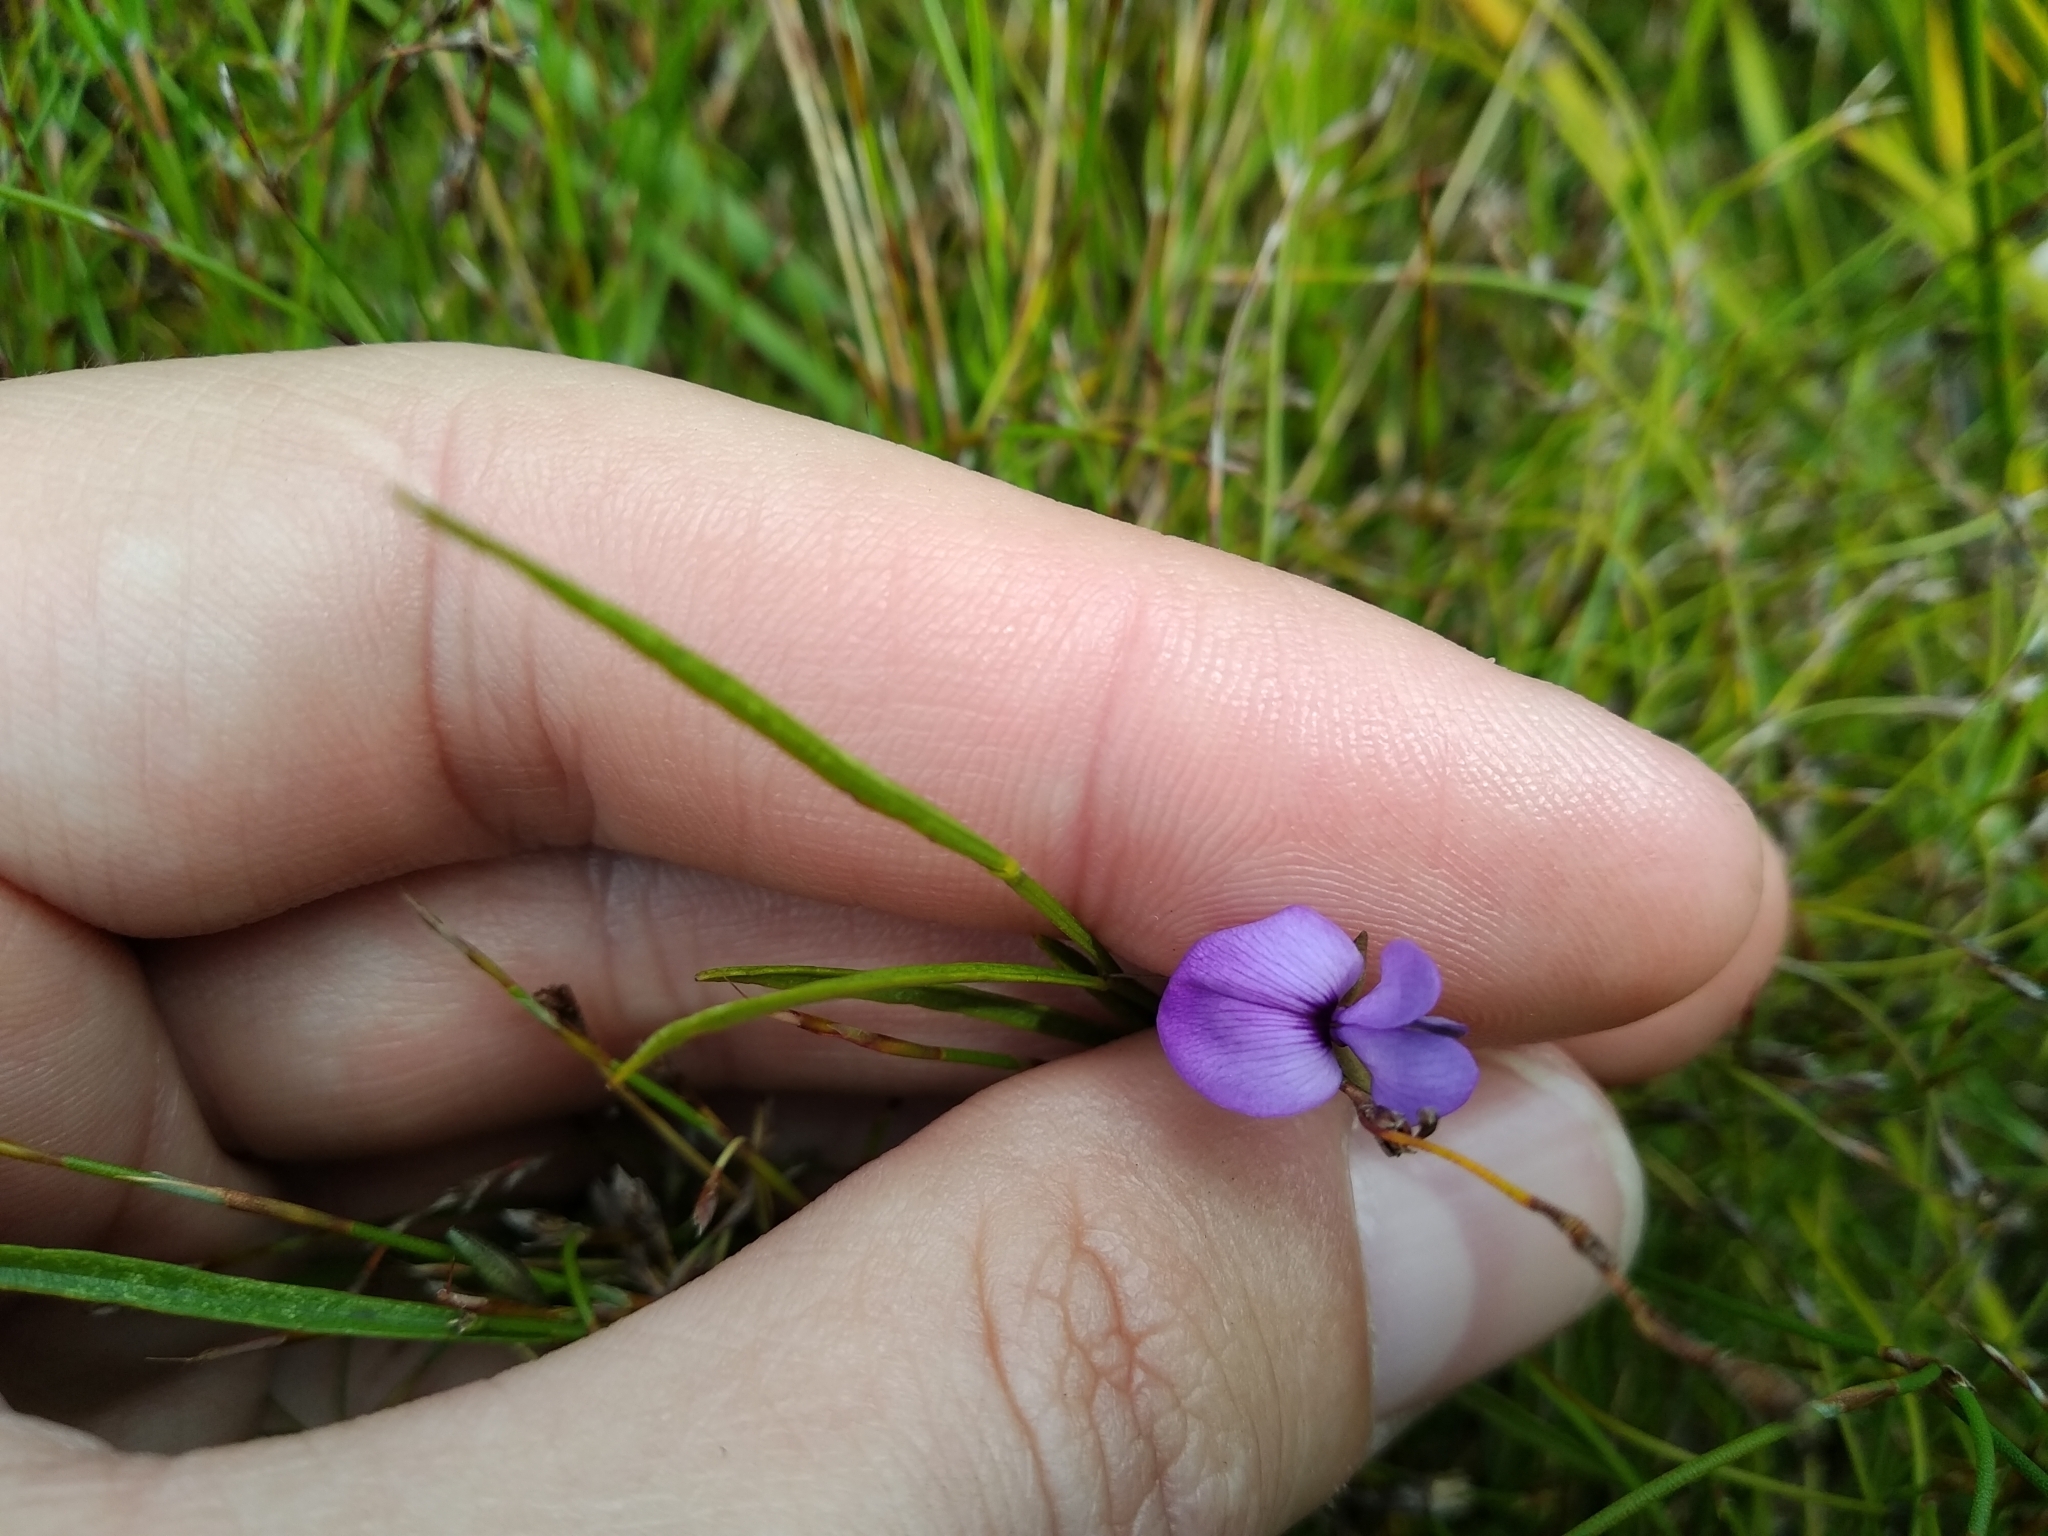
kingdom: Plantae
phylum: Tracheophyta
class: Magnoliopsida
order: Fabales
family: Fabaceae
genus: Psoralea
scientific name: Psoralea laxa
